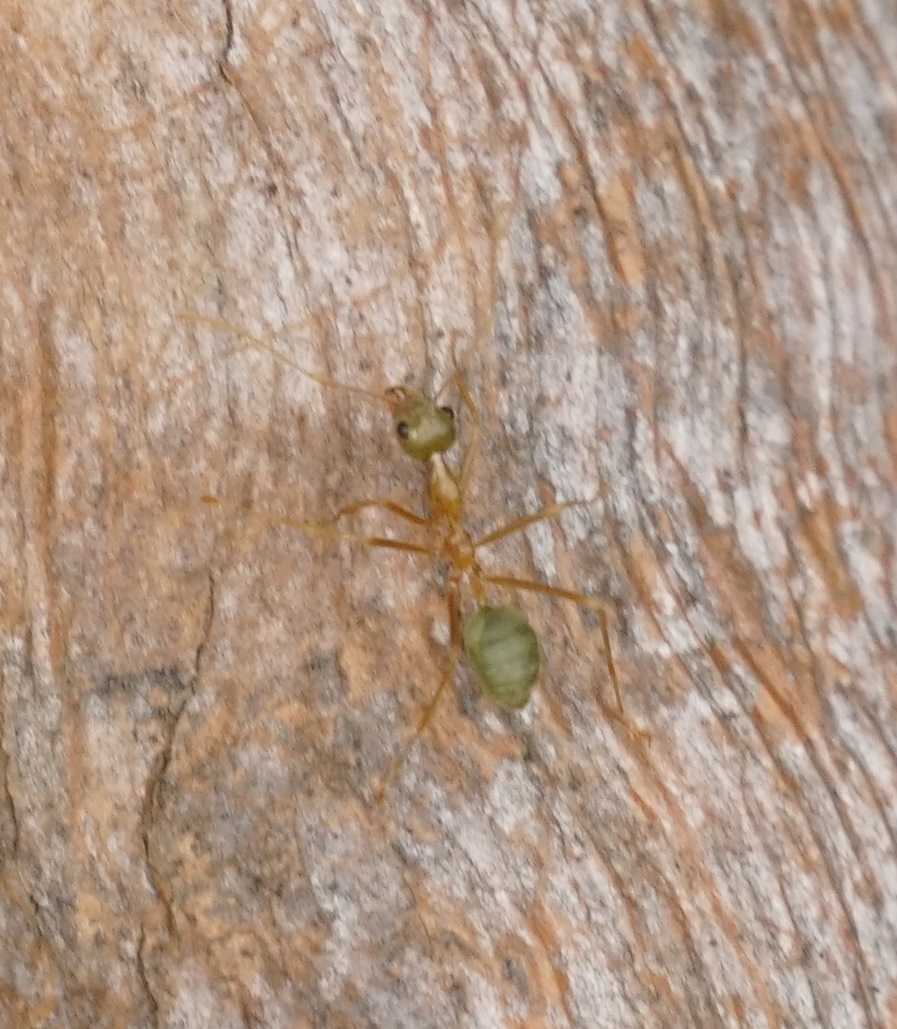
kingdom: Animalia
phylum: Arthropoda
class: Insecta
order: Hymenoptera
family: Formicidae
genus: Oecophylla
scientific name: Oecophylla smaragdina
